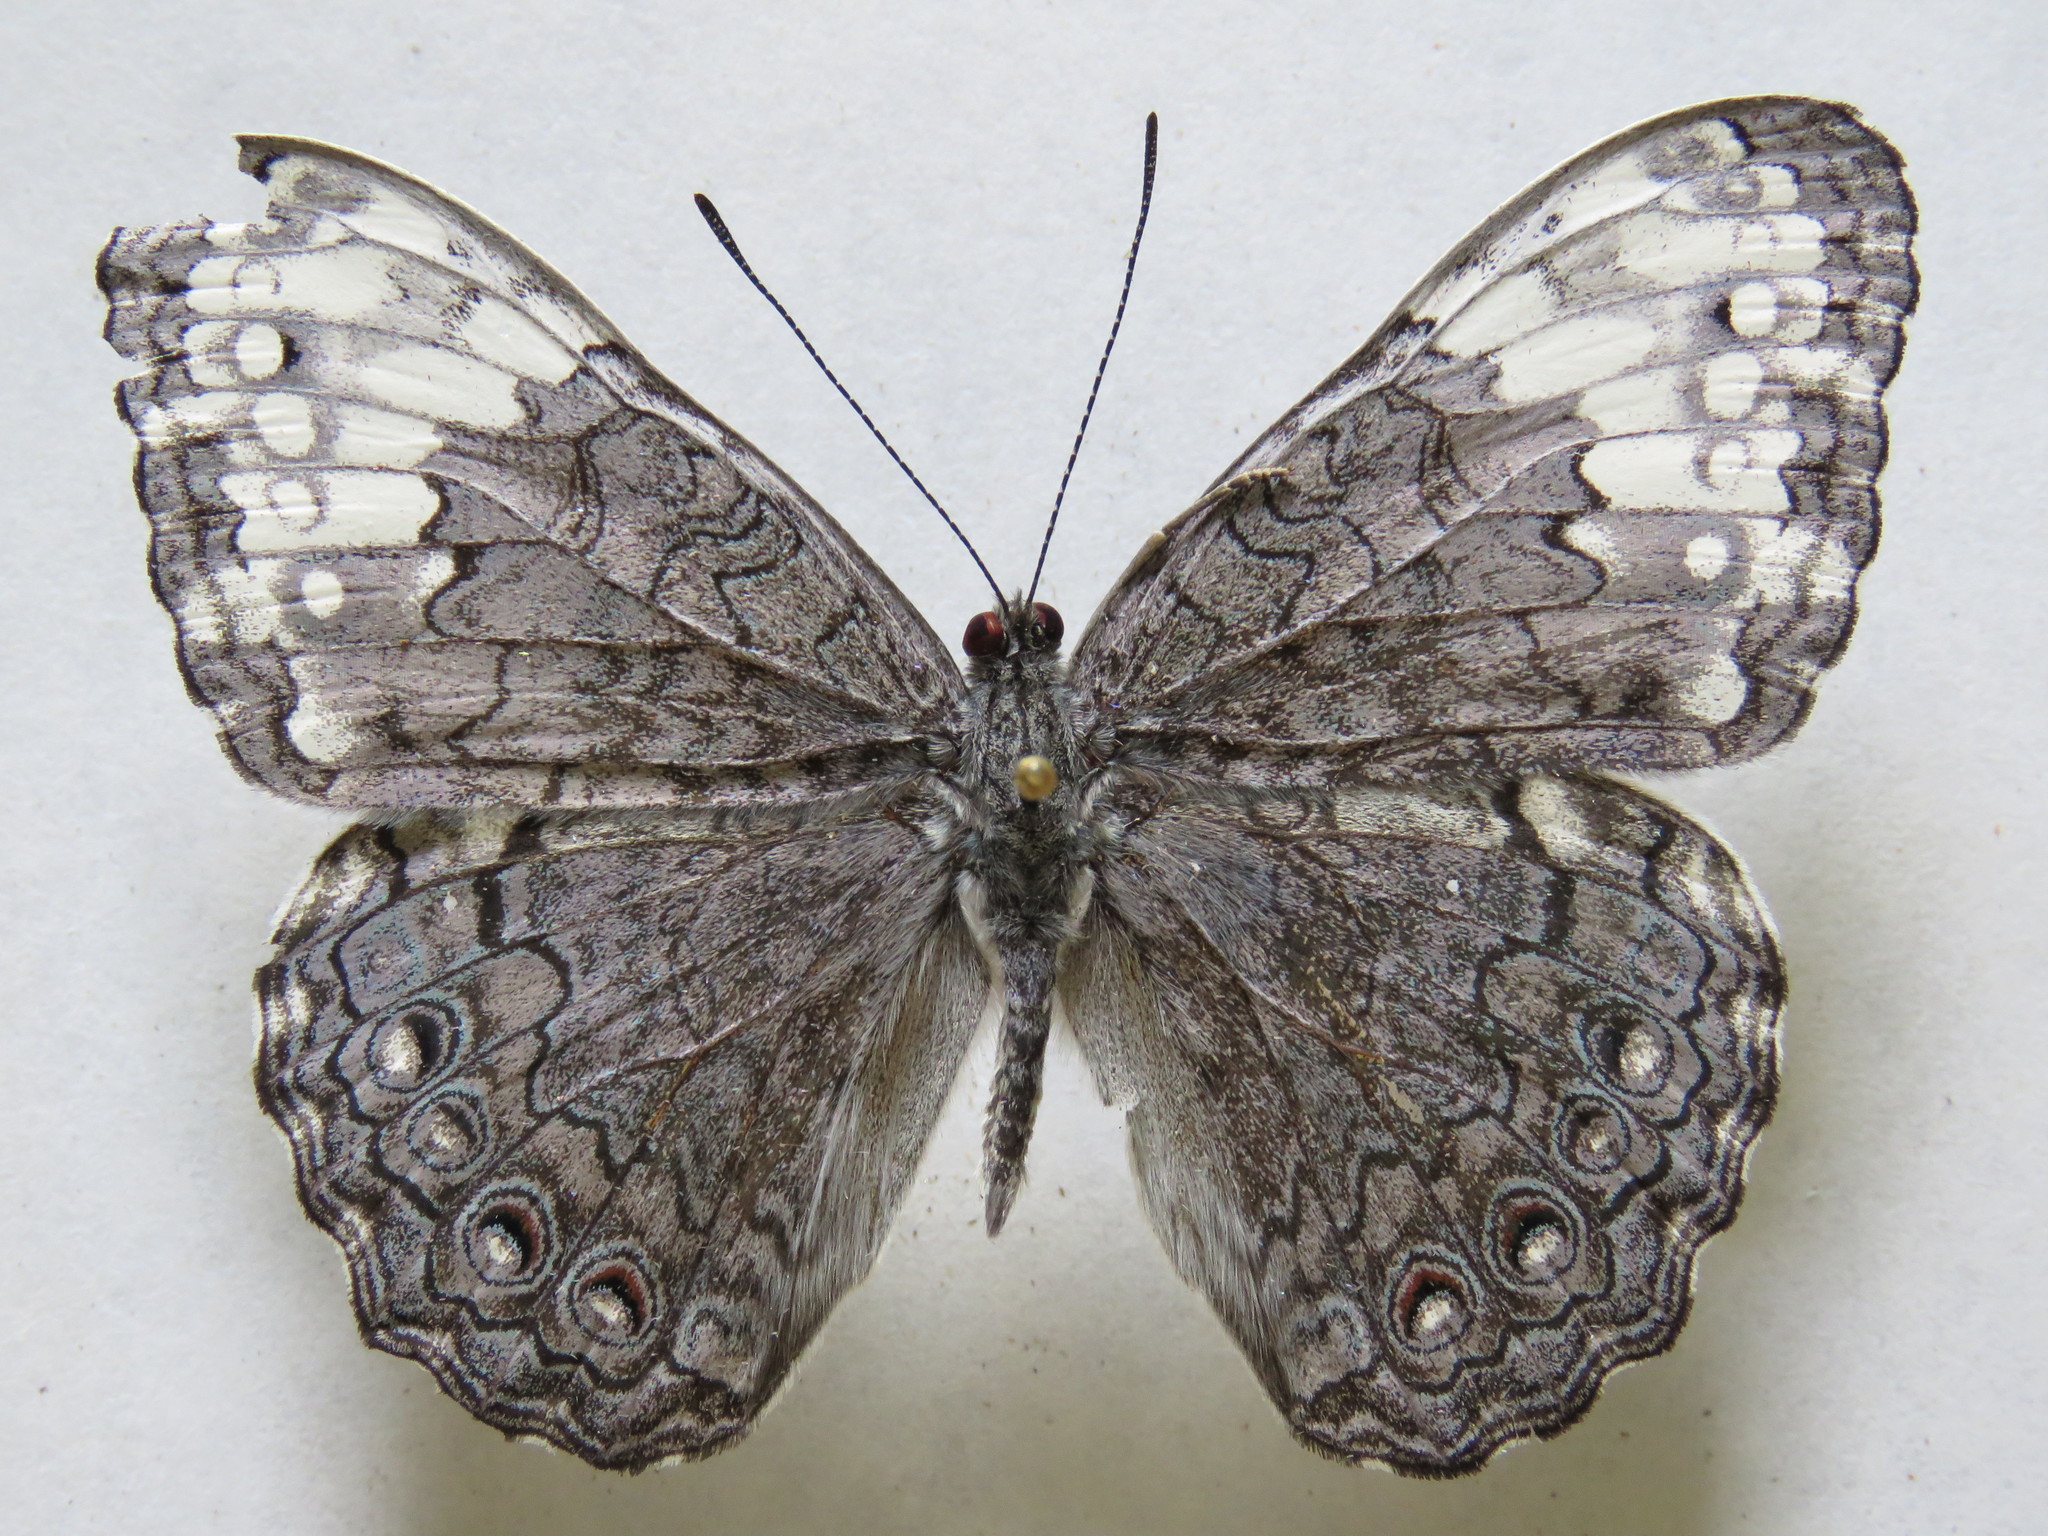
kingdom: Animalia
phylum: Arthropoda
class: Insecta
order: Lepidoptera
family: Nymphalidae
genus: Hamadryas
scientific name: Hamadryas glauconome
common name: Glaucous cracker
